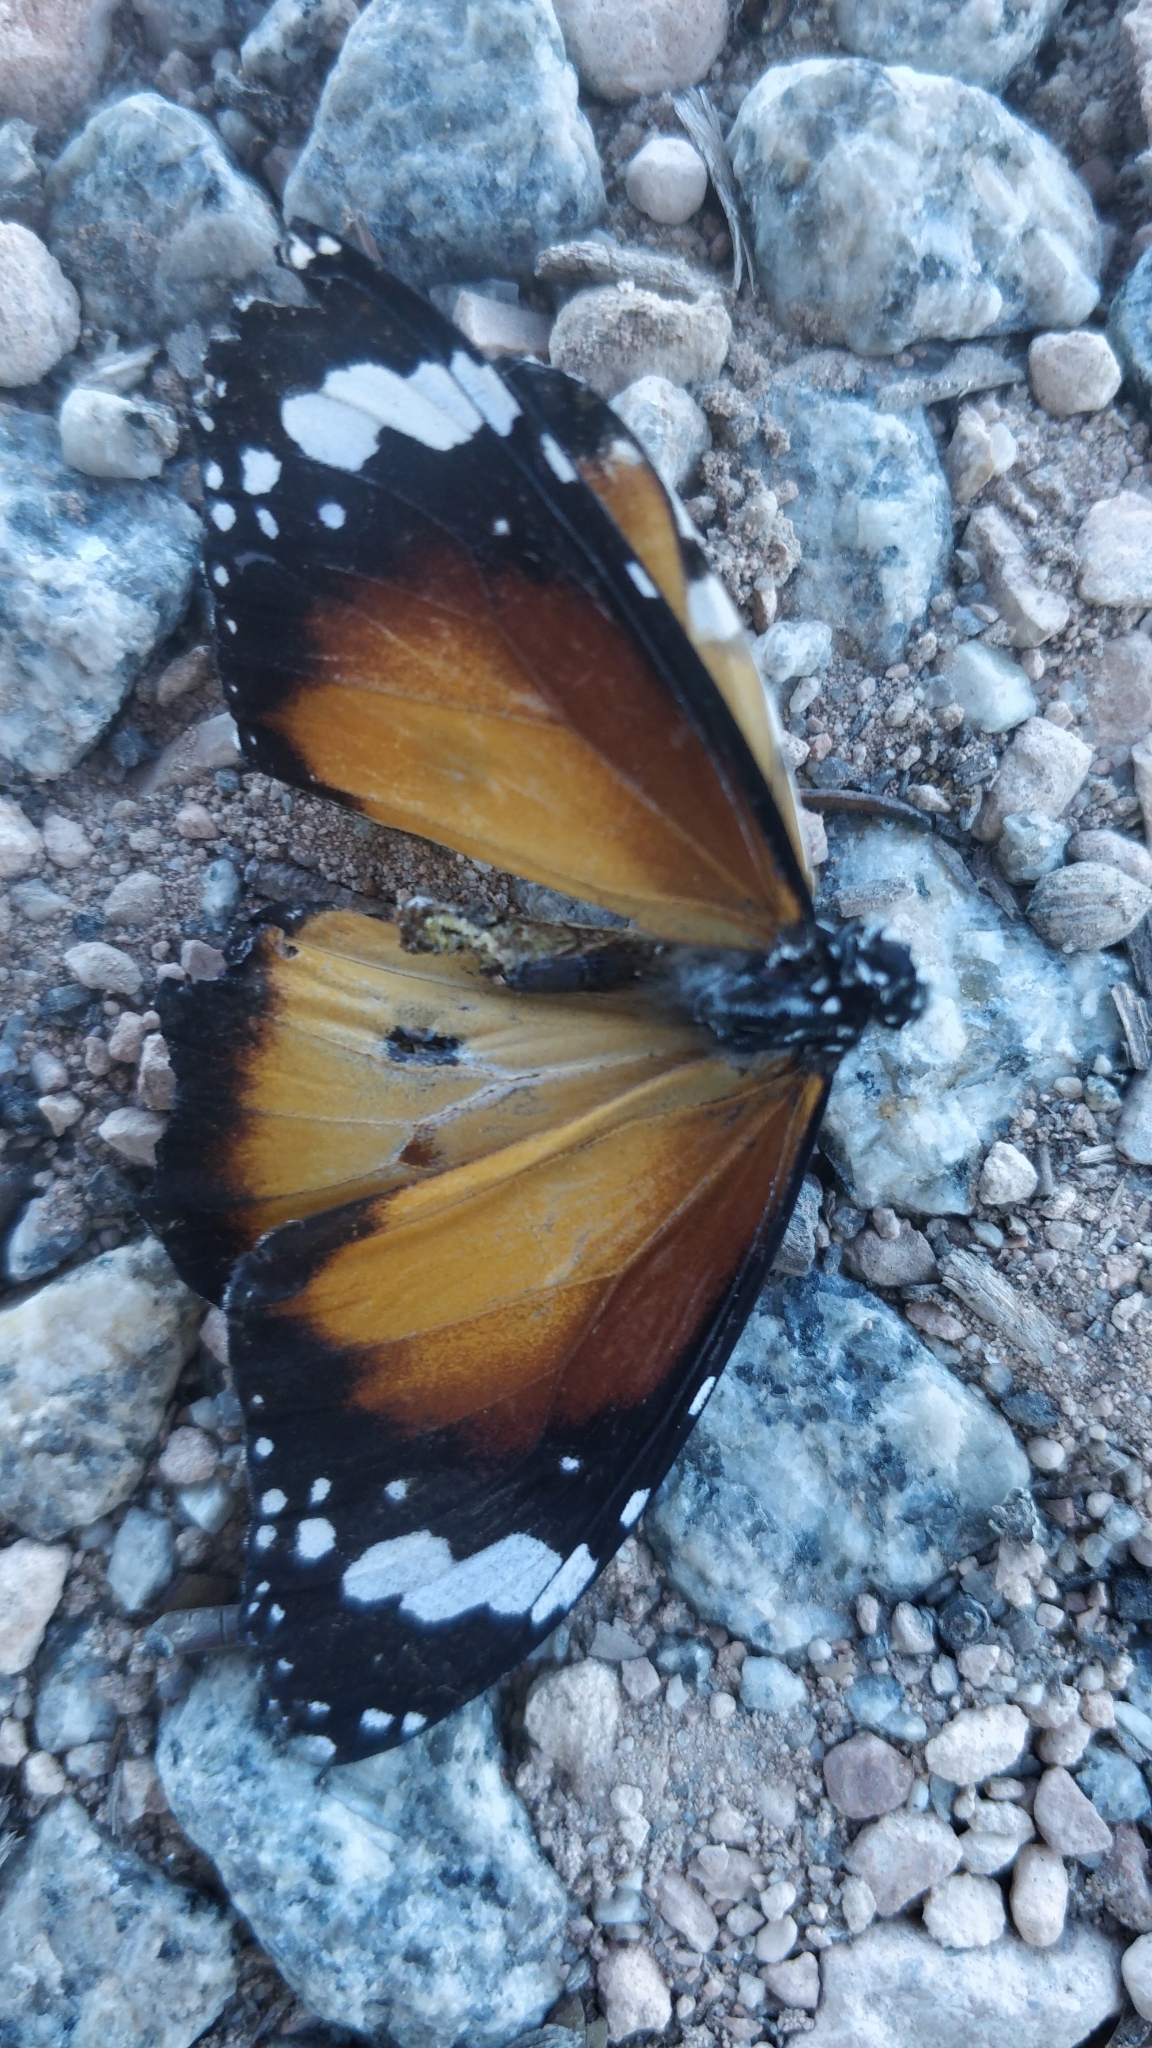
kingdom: Animalia
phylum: Arthropoda
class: Insecta
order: Lepidoptera
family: Nymphalidae
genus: Danaus
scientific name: Danaus chrysippus
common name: Plain tiger
